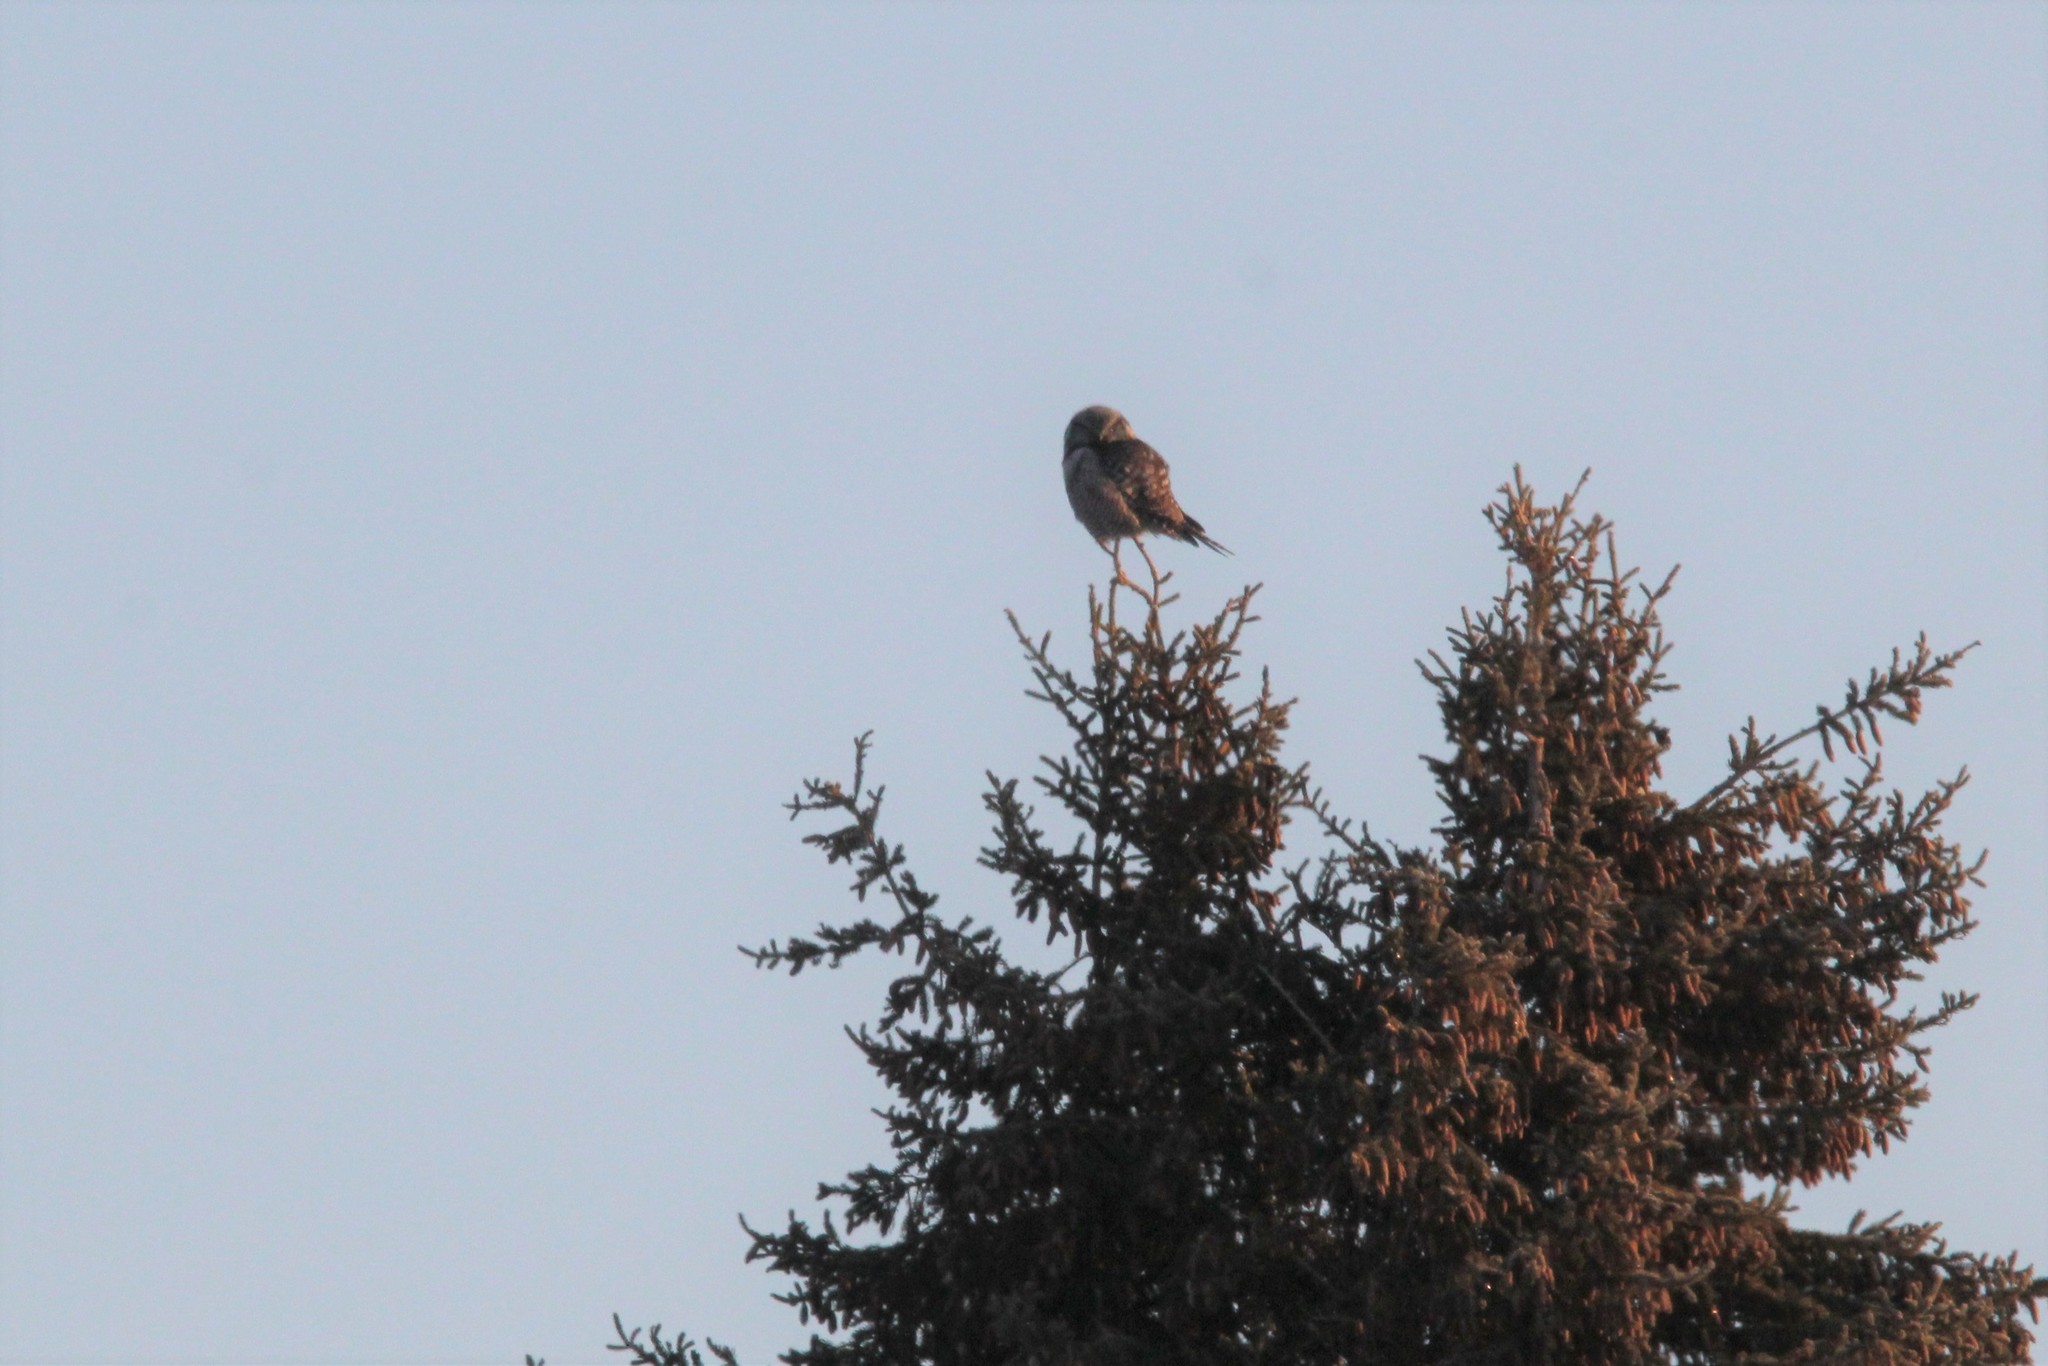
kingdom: Animalia
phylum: Chordata
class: Aves
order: Strigiformes
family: Strigidae
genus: Surnia
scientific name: Surnia ulula
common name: Northern hawk-owl
